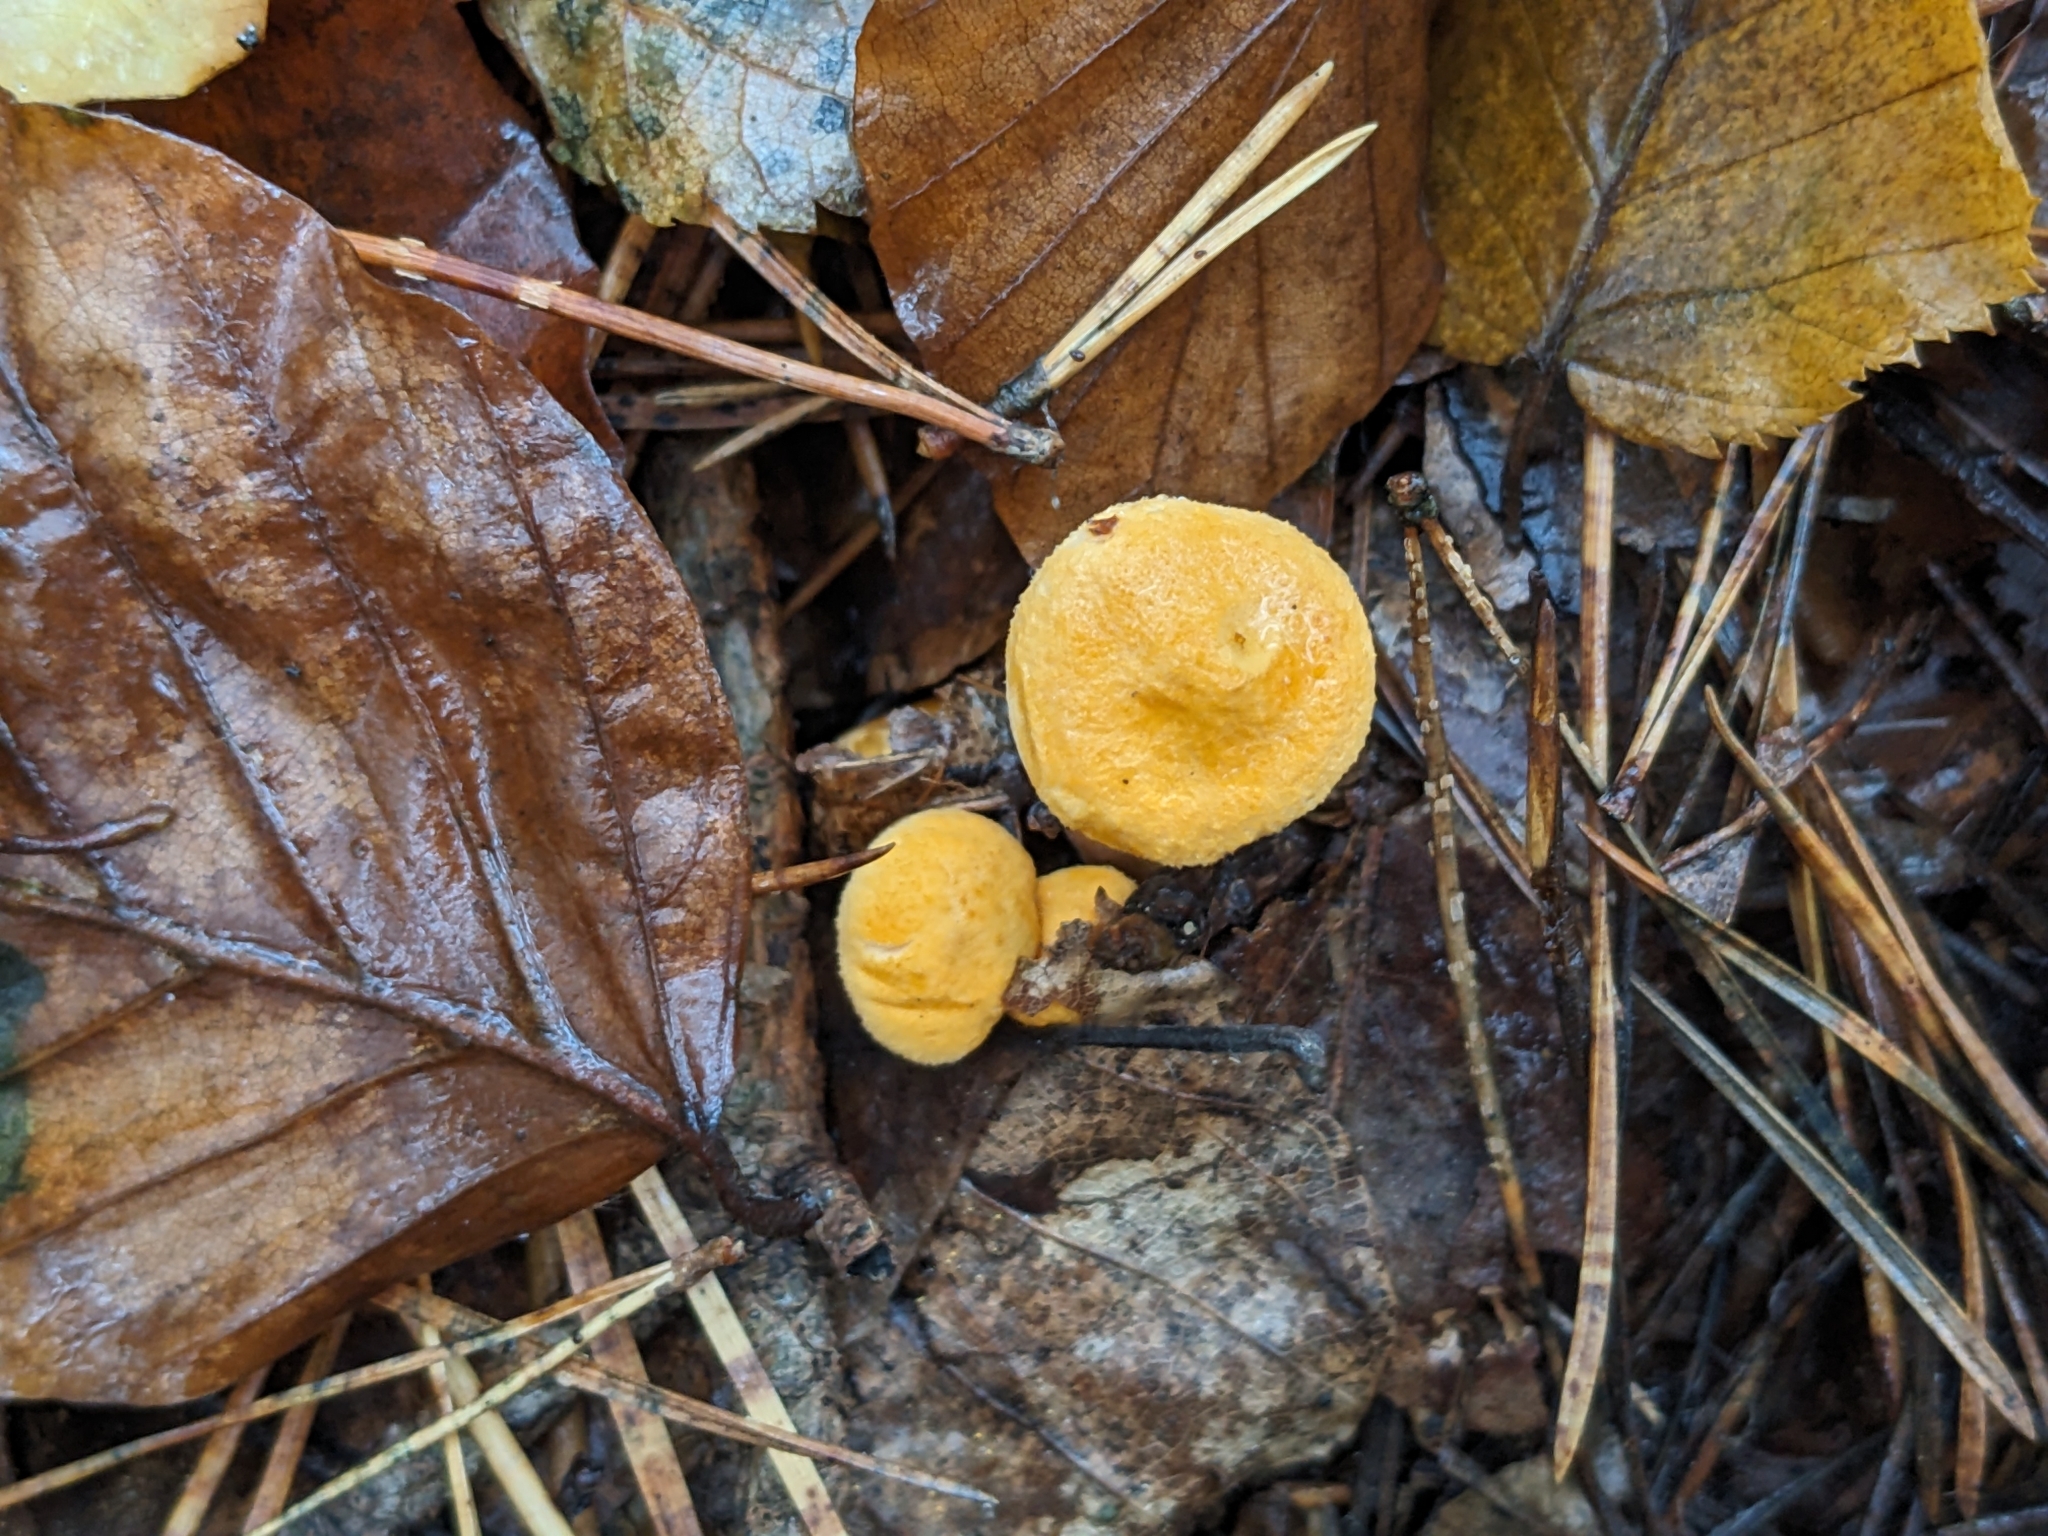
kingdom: Fungi
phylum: Basidiomycota
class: Agaricomycetes
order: Cantharellales
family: Hydnaceae
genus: Cantharellus
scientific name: Cantharellus cibarius
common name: Chanterelle
